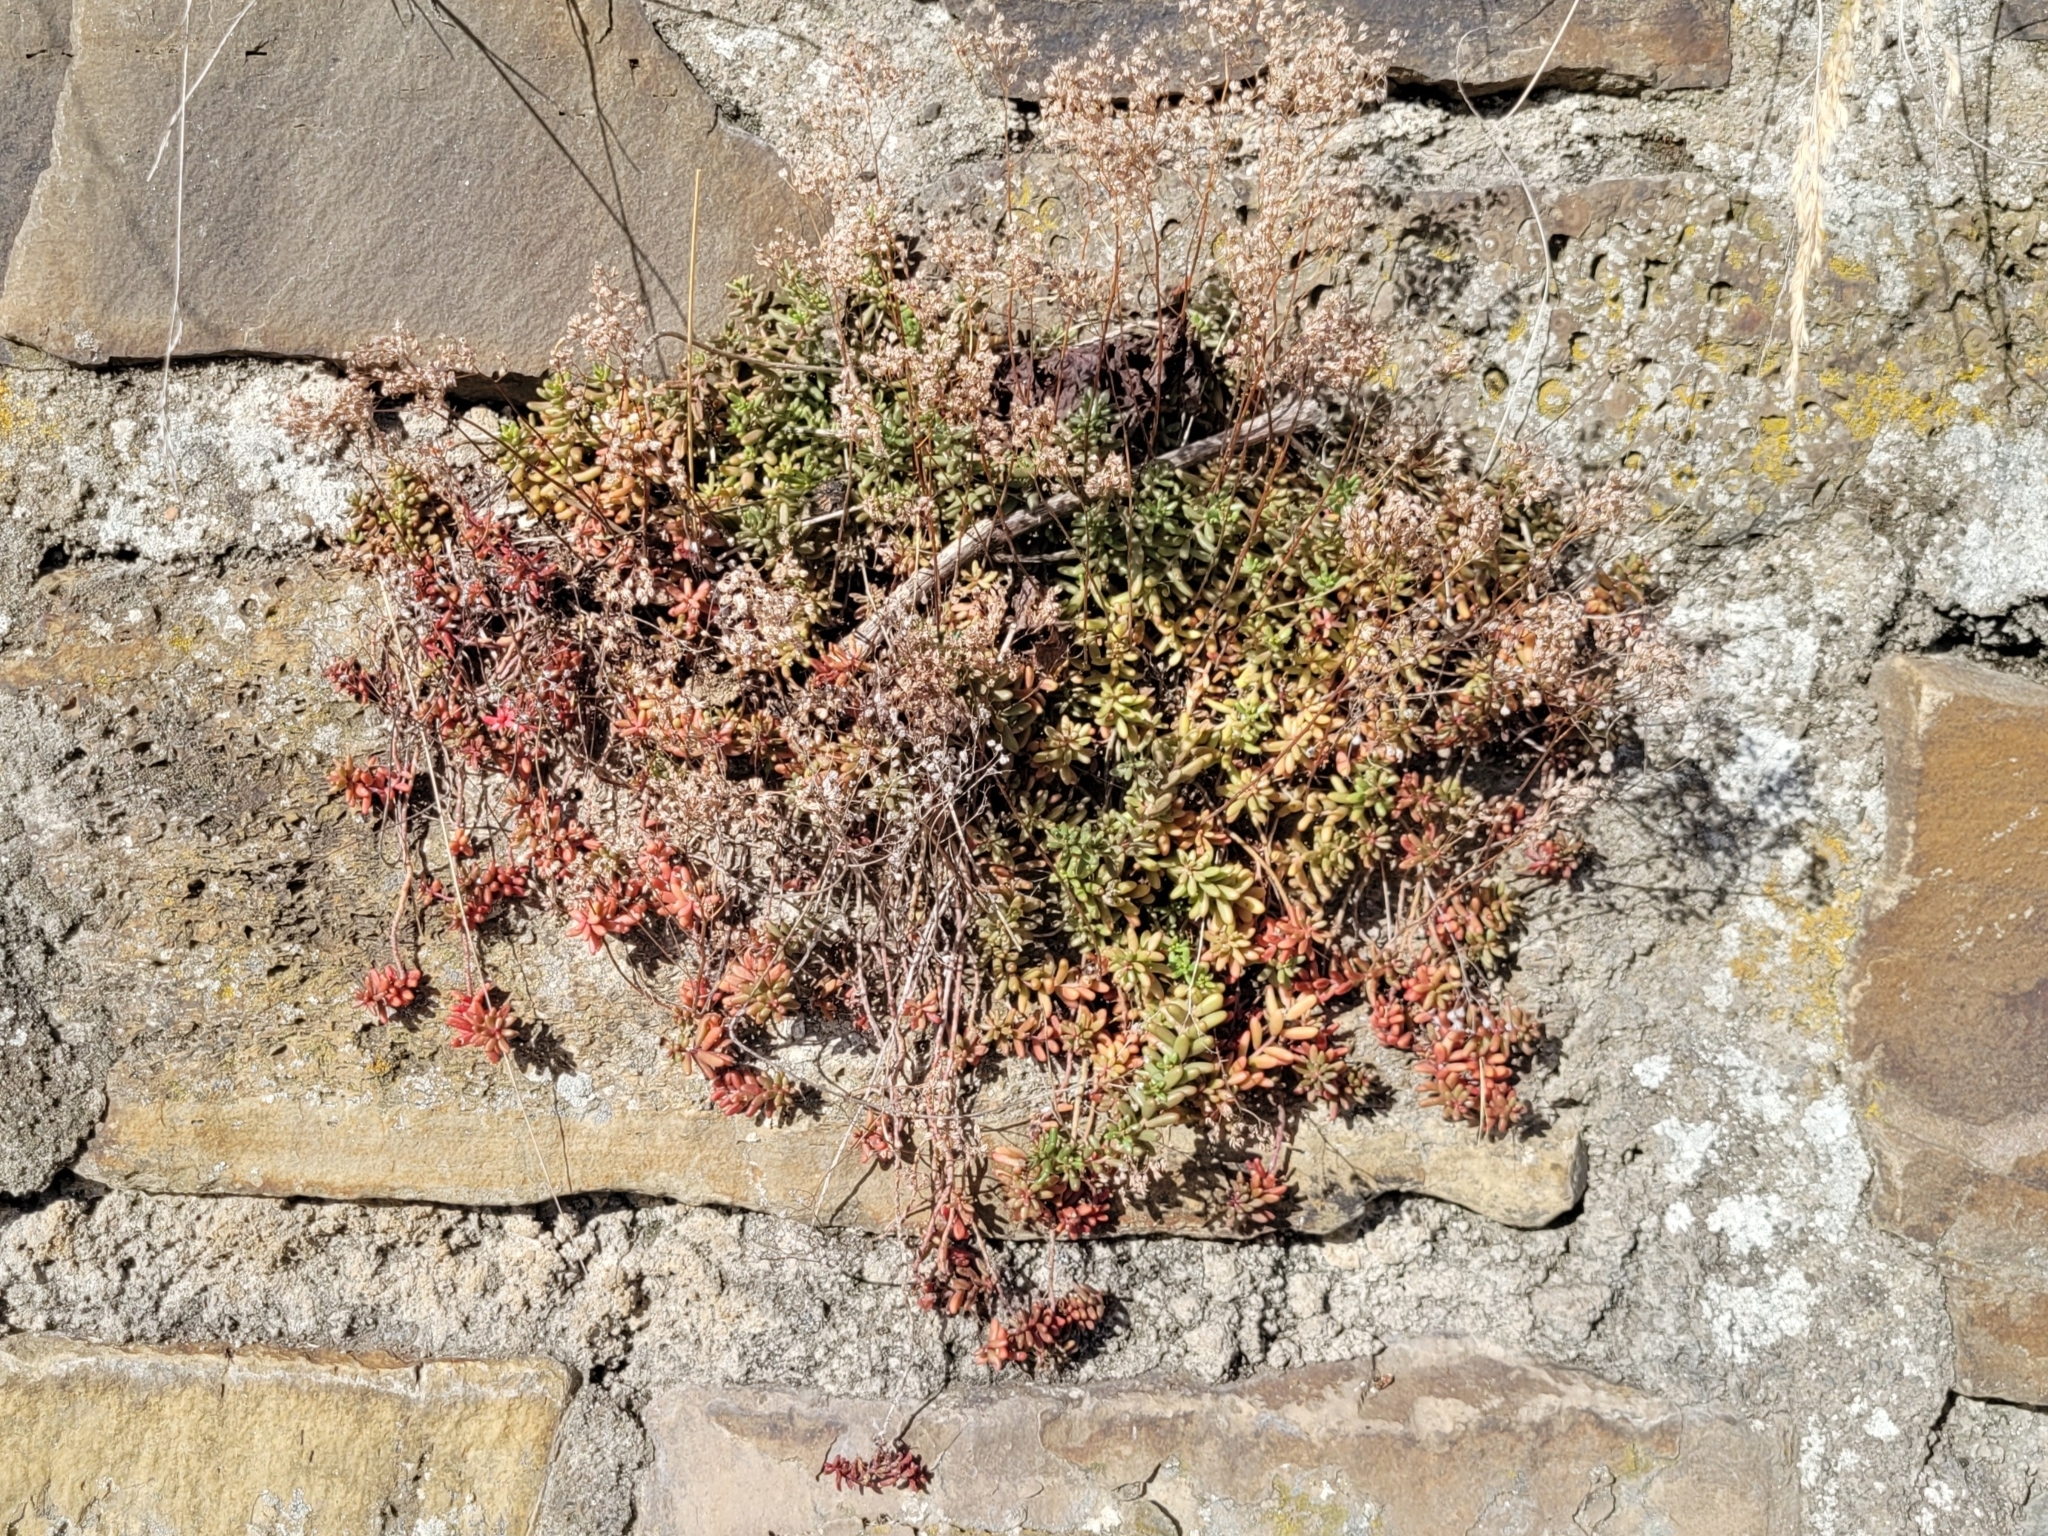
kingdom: Plantae
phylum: Tracheophyta
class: Magnoliopsida
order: Saxifragales
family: Crassulaceae
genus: Sedum
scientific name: Sedum album
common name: White stonecrop
